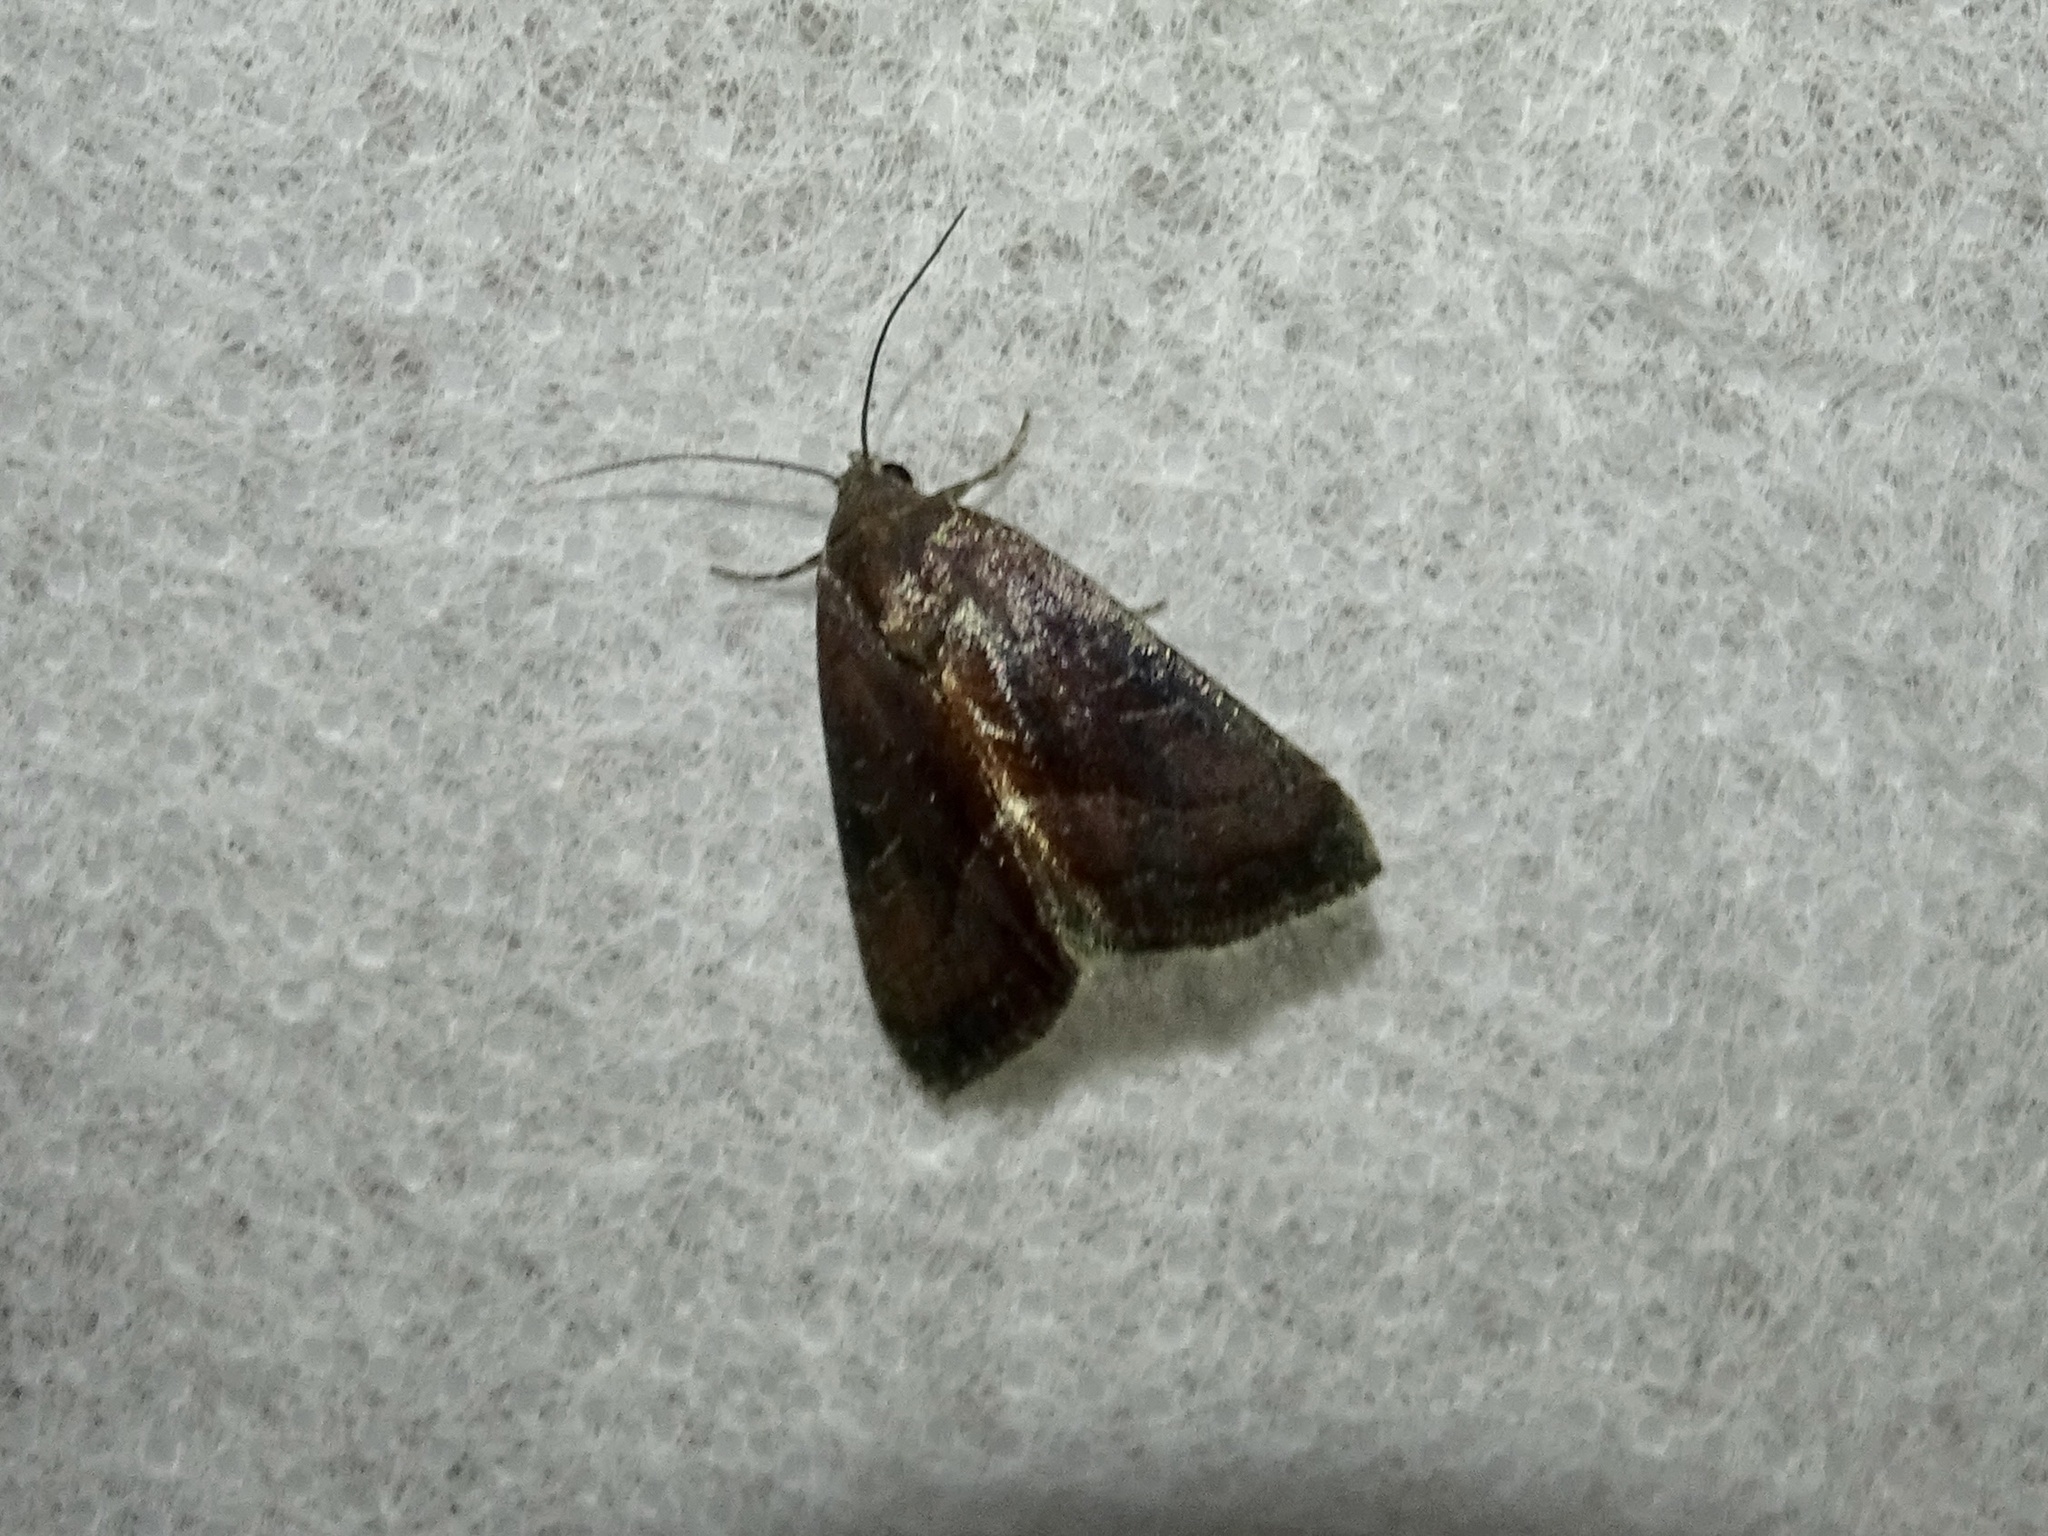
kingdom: Animalia
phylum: Arthropoda
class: Insecta
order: Lepidoptera
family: Noctuidae
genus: Galgula
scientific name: Galgula partita
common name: Wedgeling
